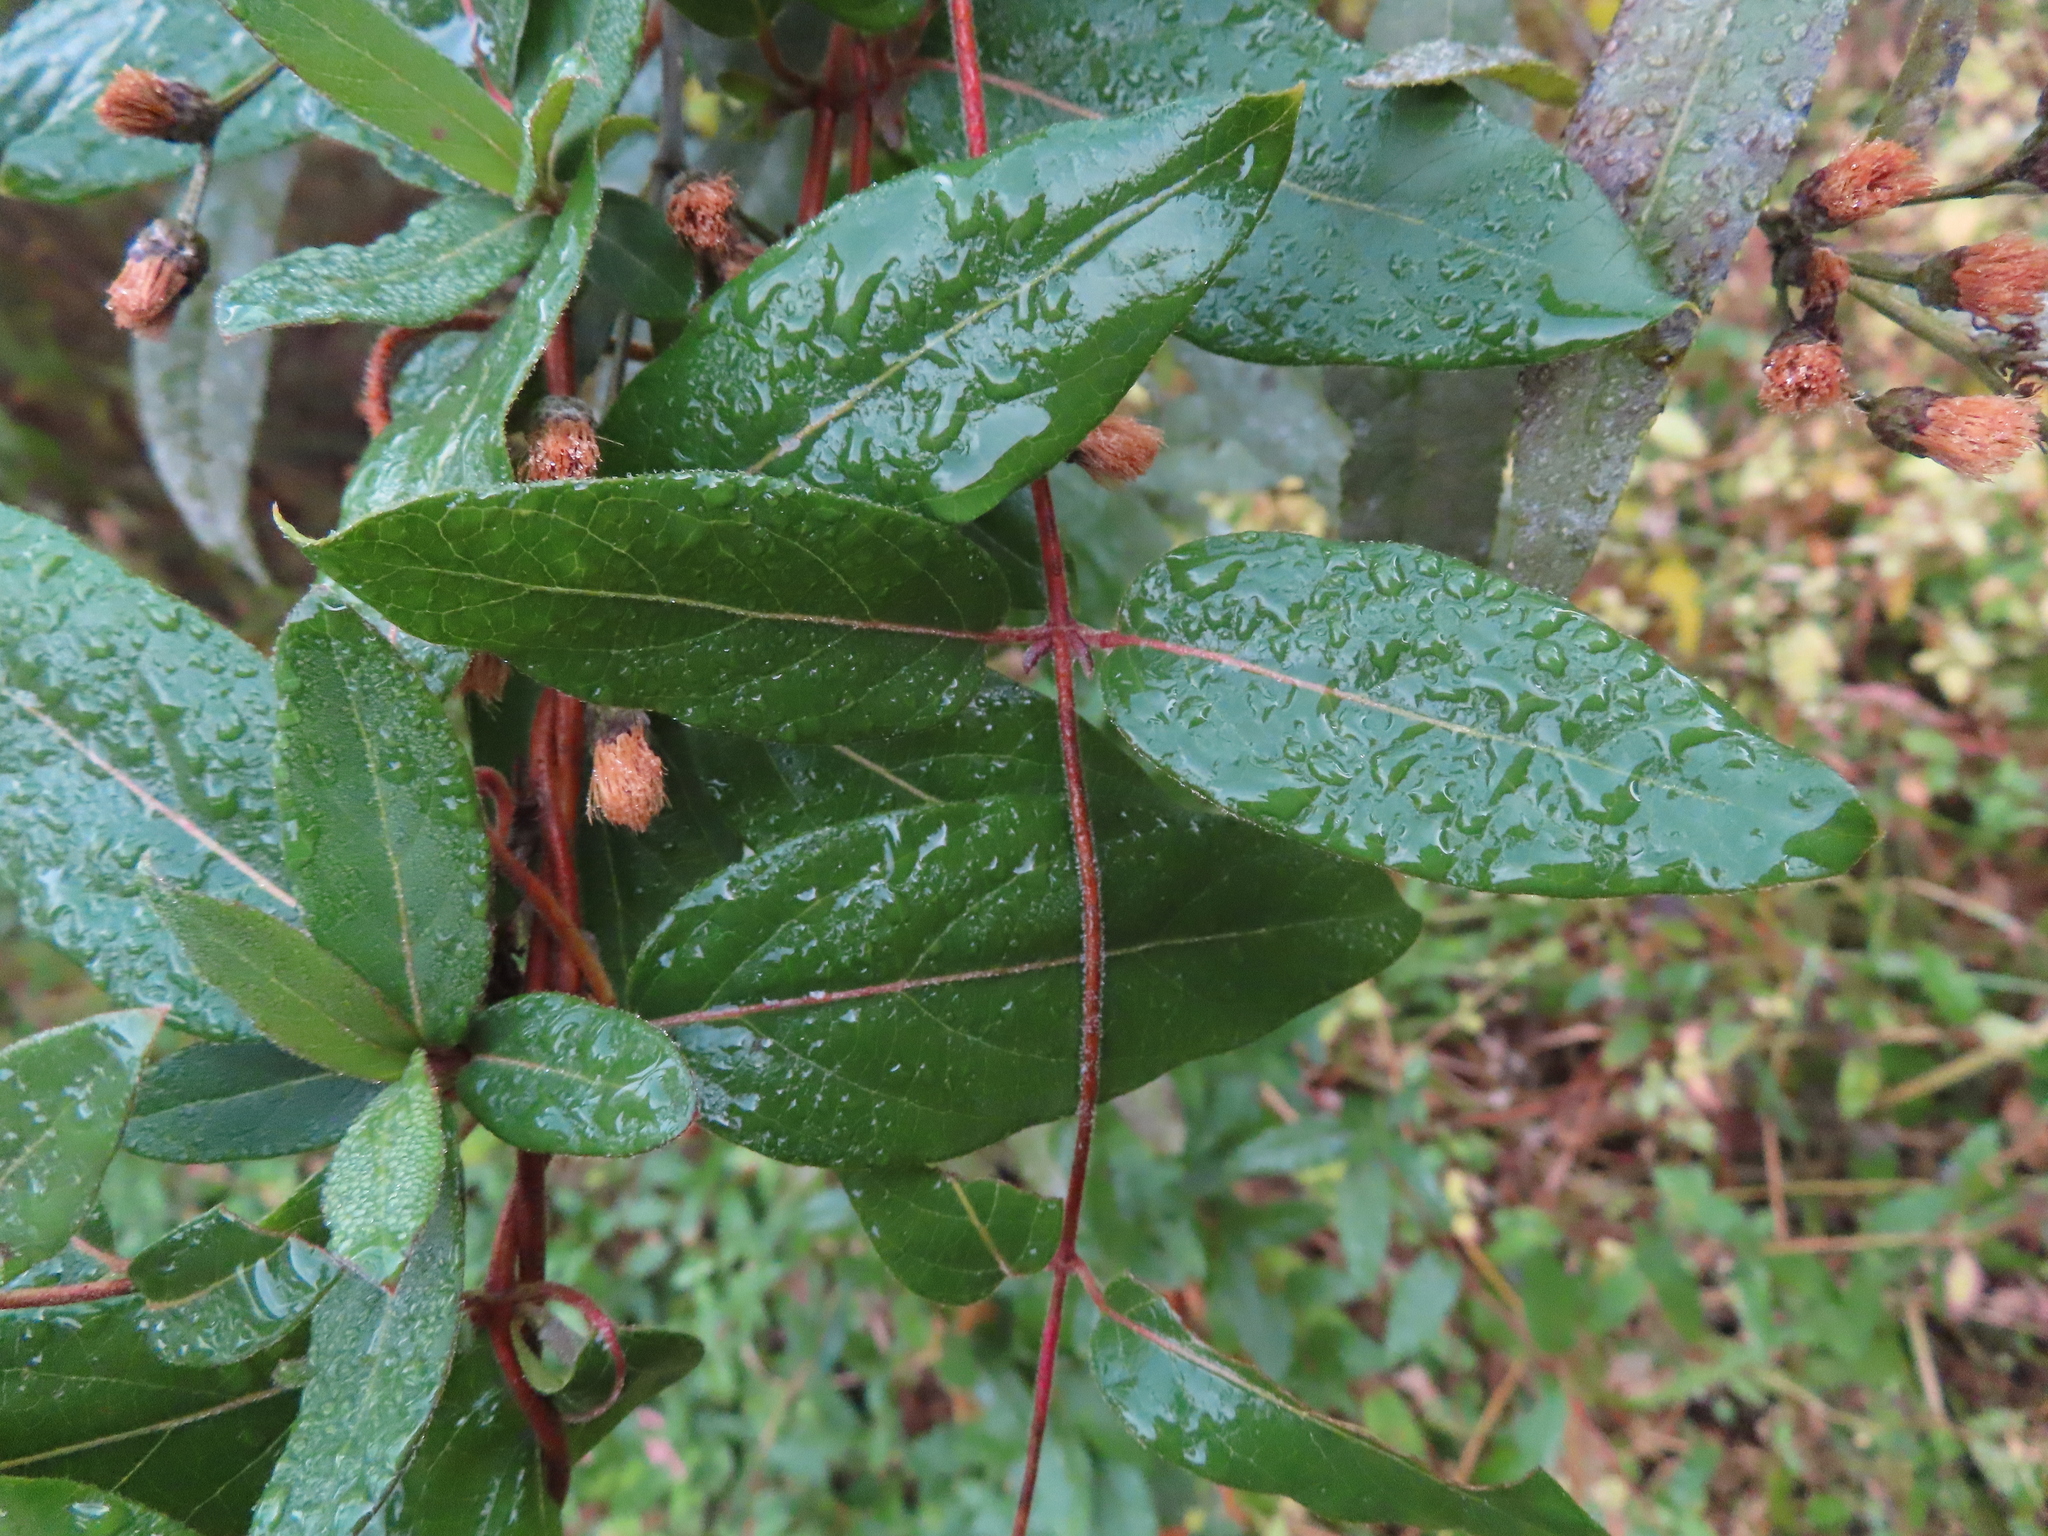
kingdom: Plantae
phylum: Tracheophyta
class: Magnoliopsida
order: Dipsacales
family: Caprifoliaceae
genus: Lonicera
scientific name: Lonicera japonica
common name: Japanese honeysuckle
